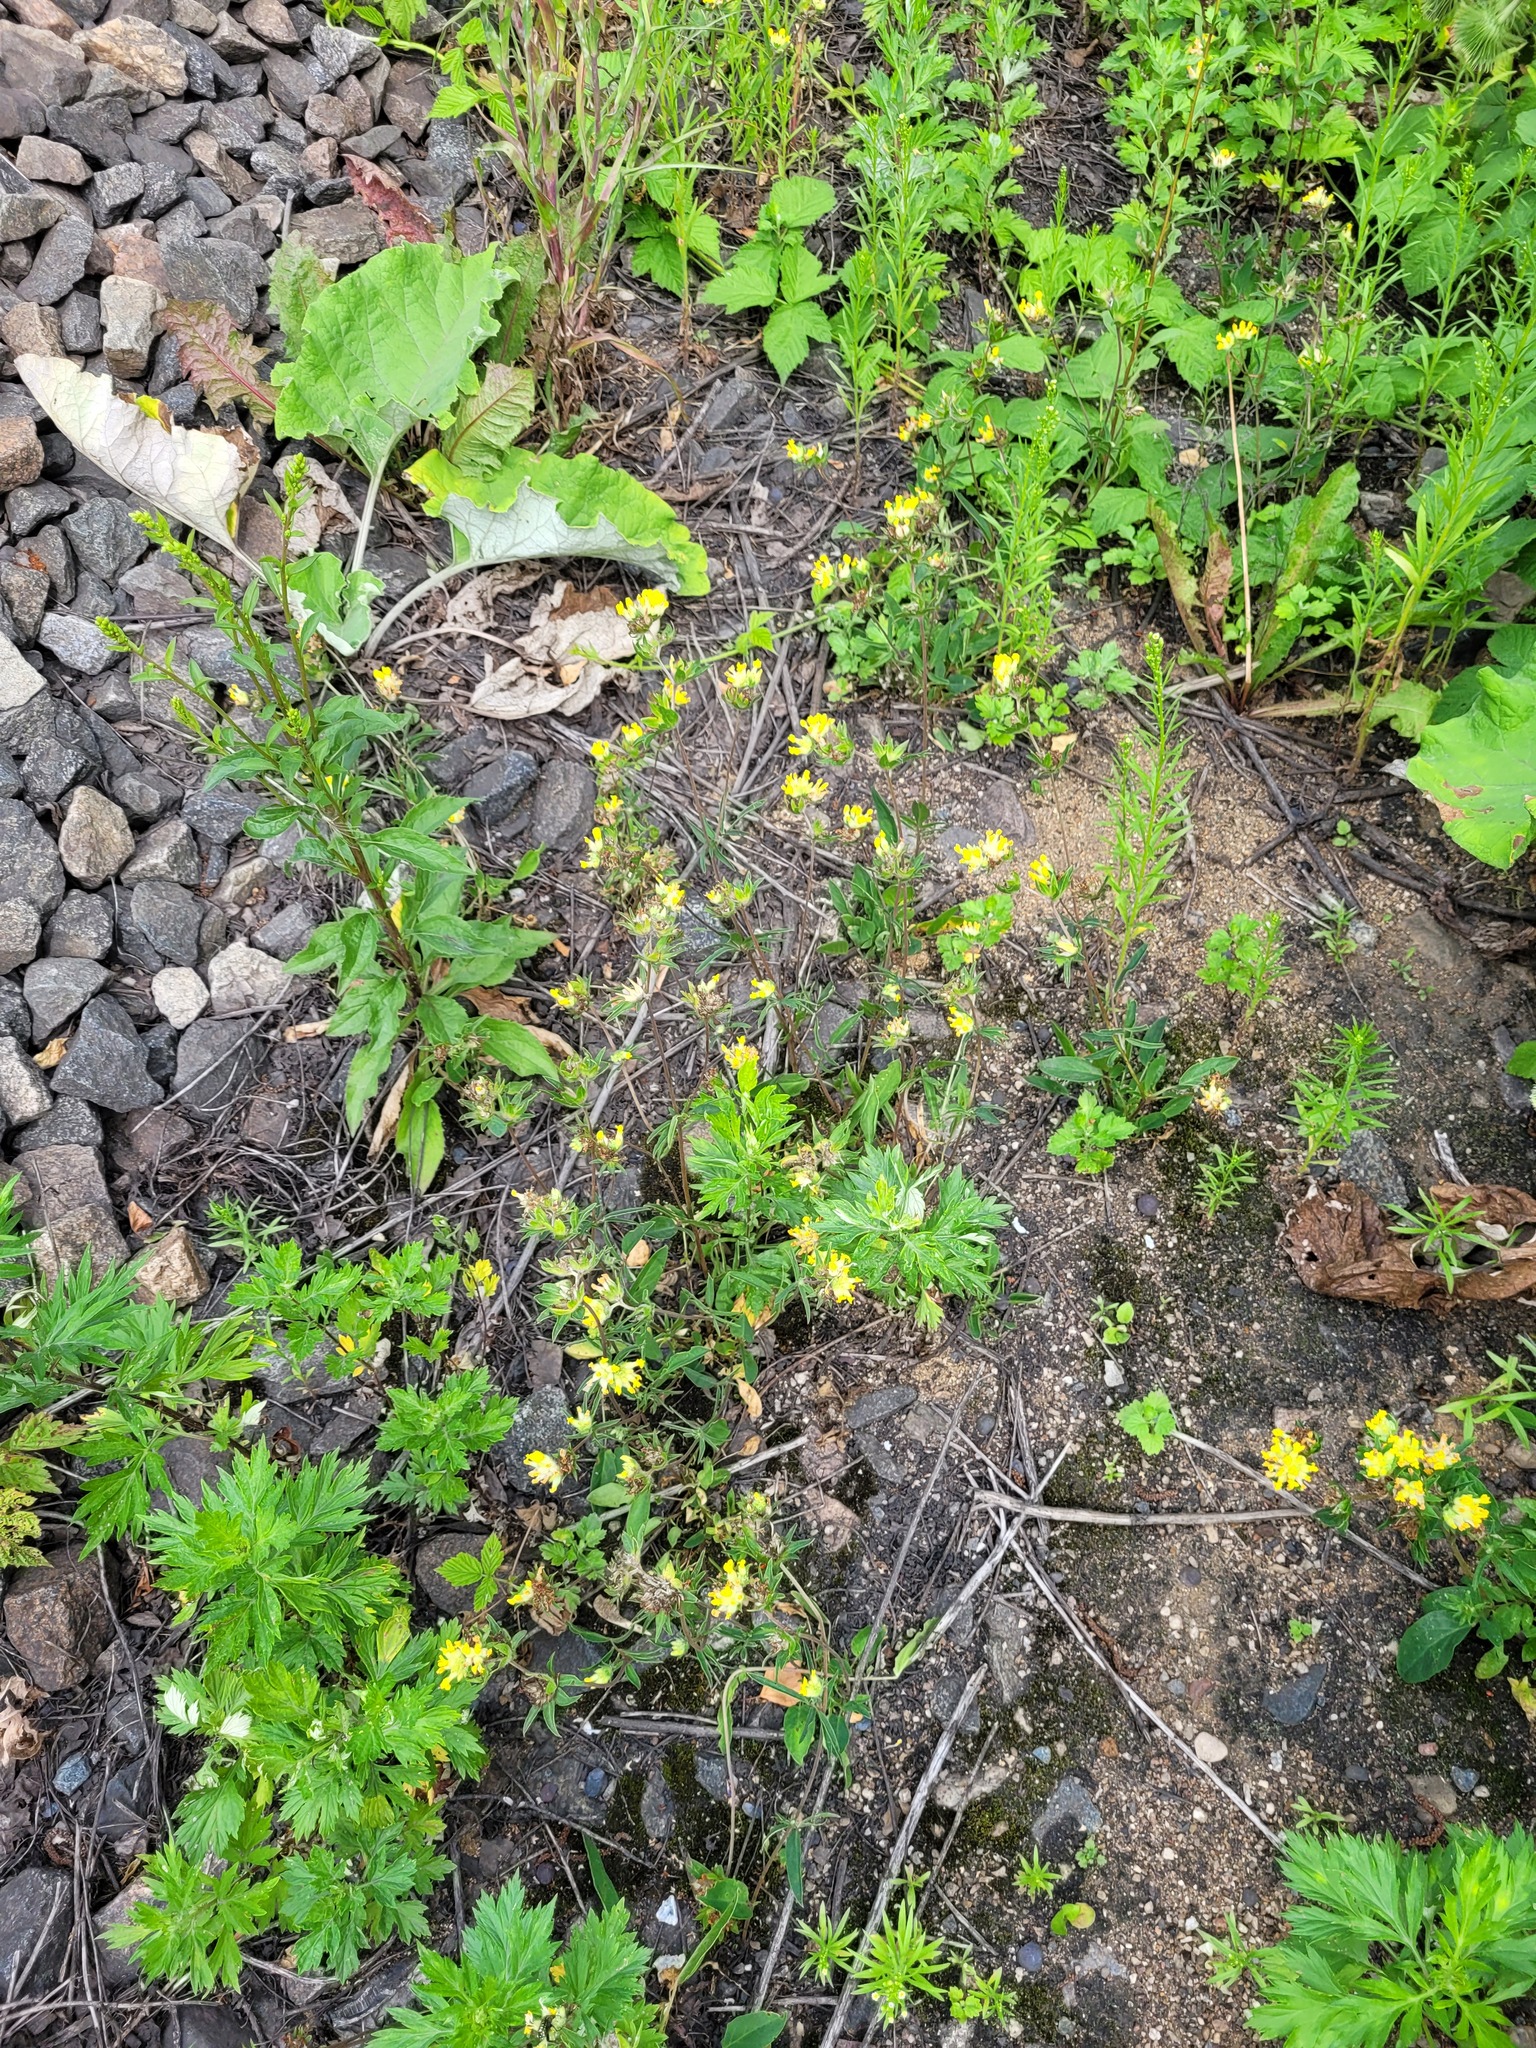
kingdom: Plantae
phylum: Tracheophyta
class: Magnoliopsida
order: Fabales
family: Fabaceae
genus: Anthyllis
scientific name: Anthyllis vulneraria
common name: Kidney vetch
